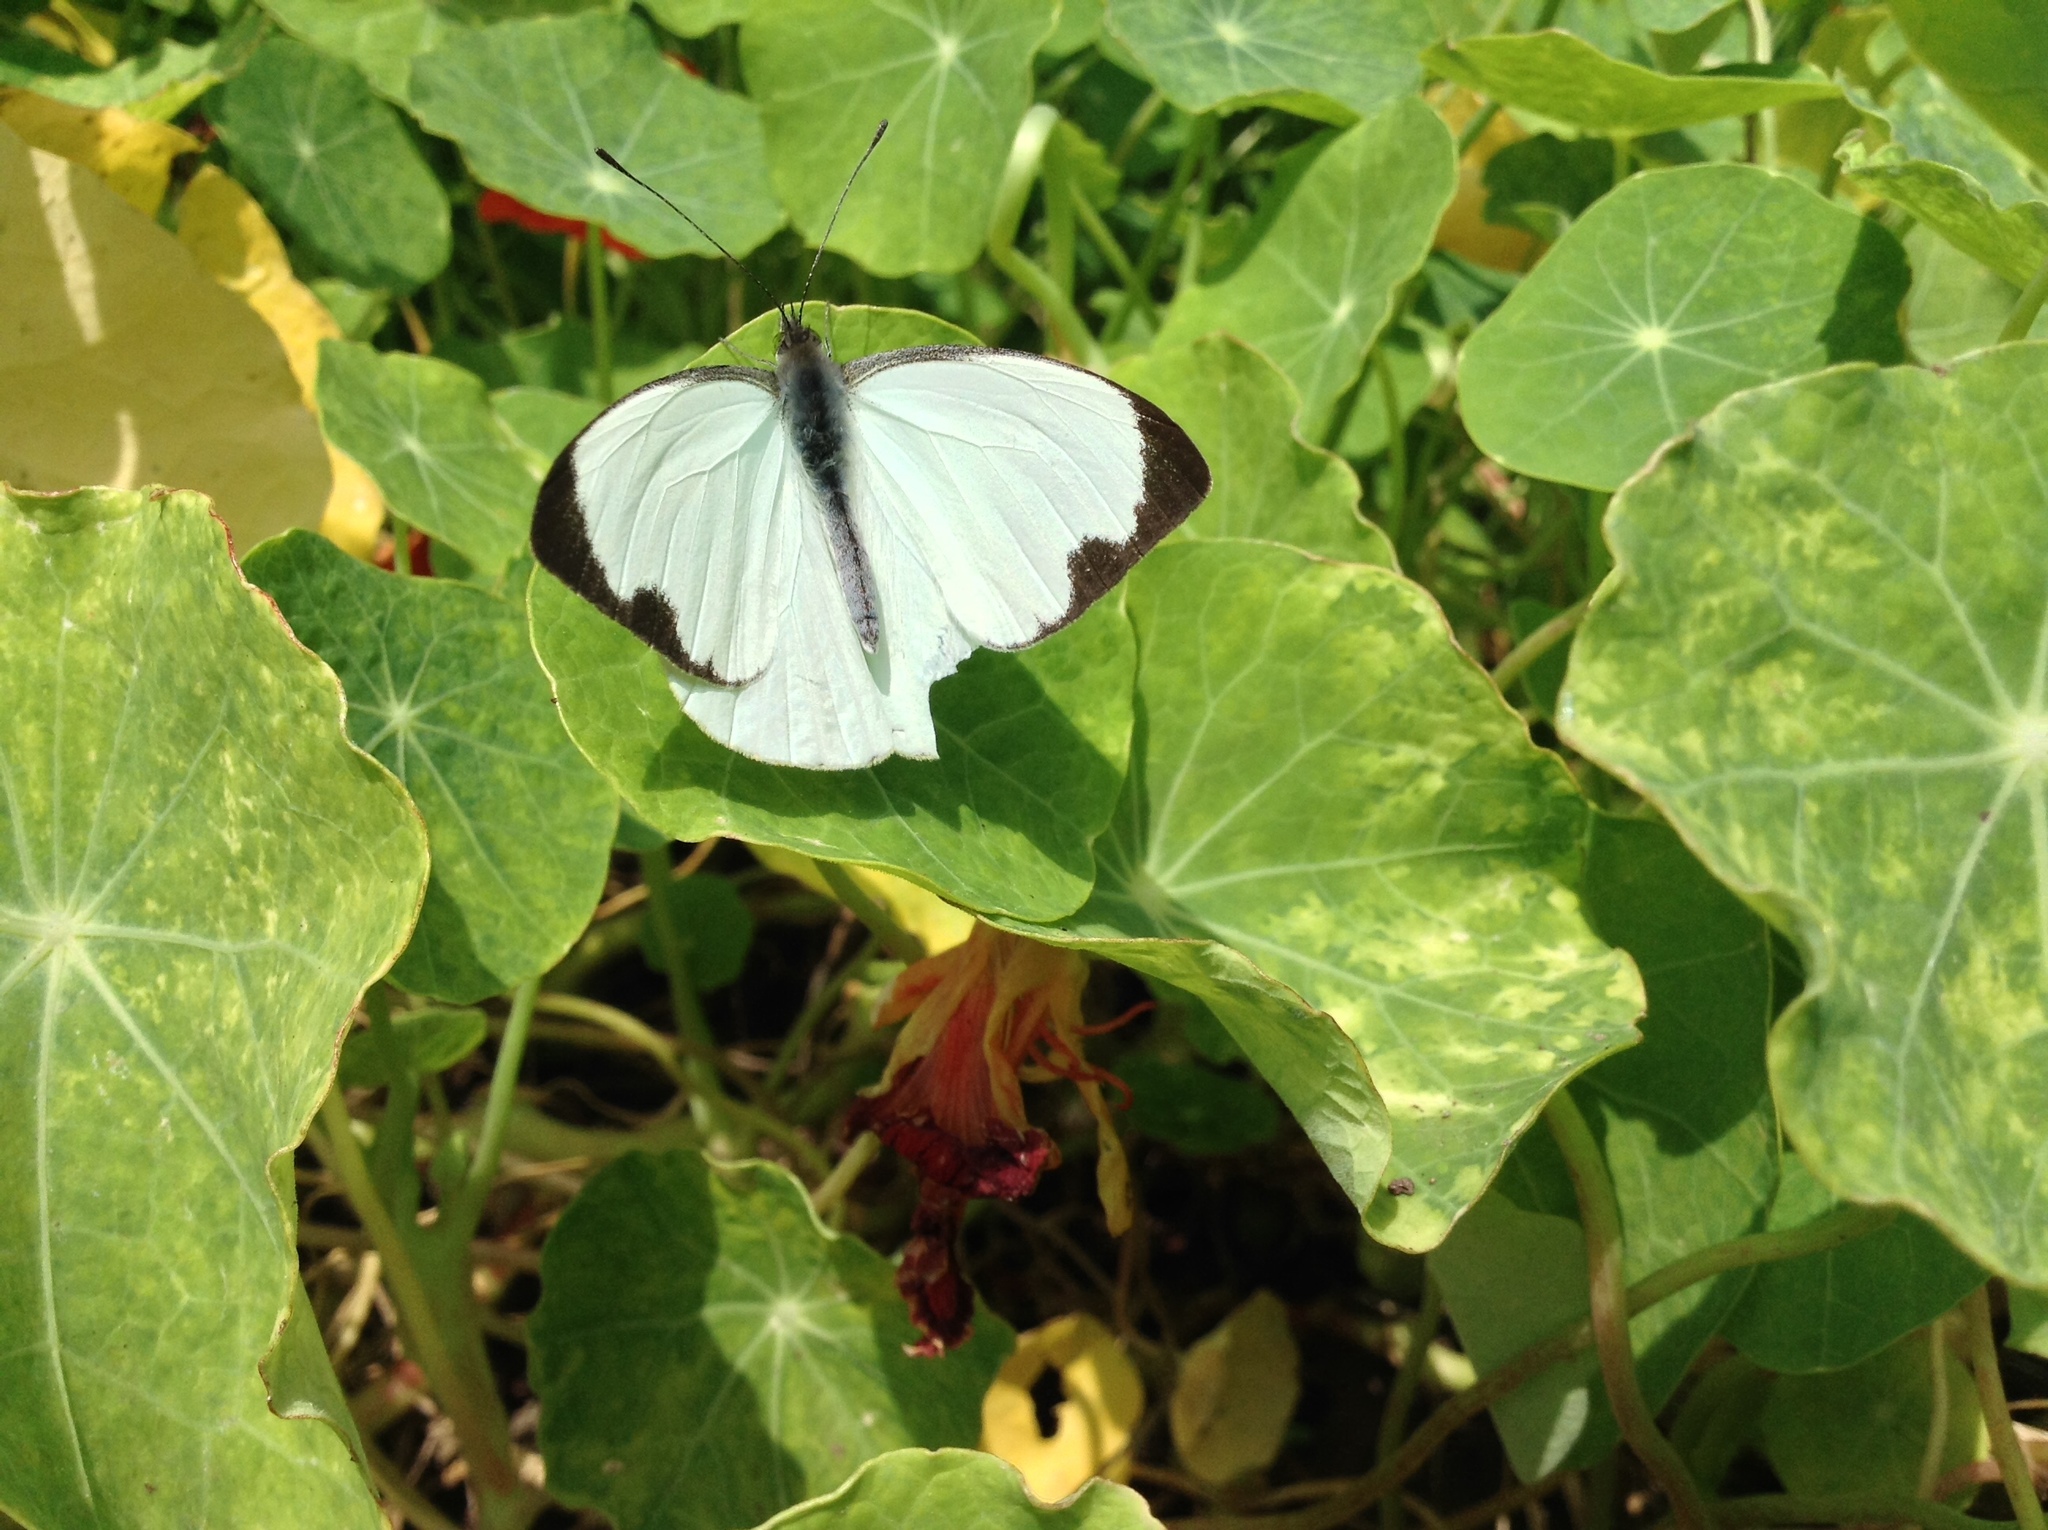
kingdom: Animalia
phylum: Arthropoda
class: Insecta
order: Lepidoptera
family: Pieridae
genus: Leptophobia
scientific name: Leptophobia aripa
